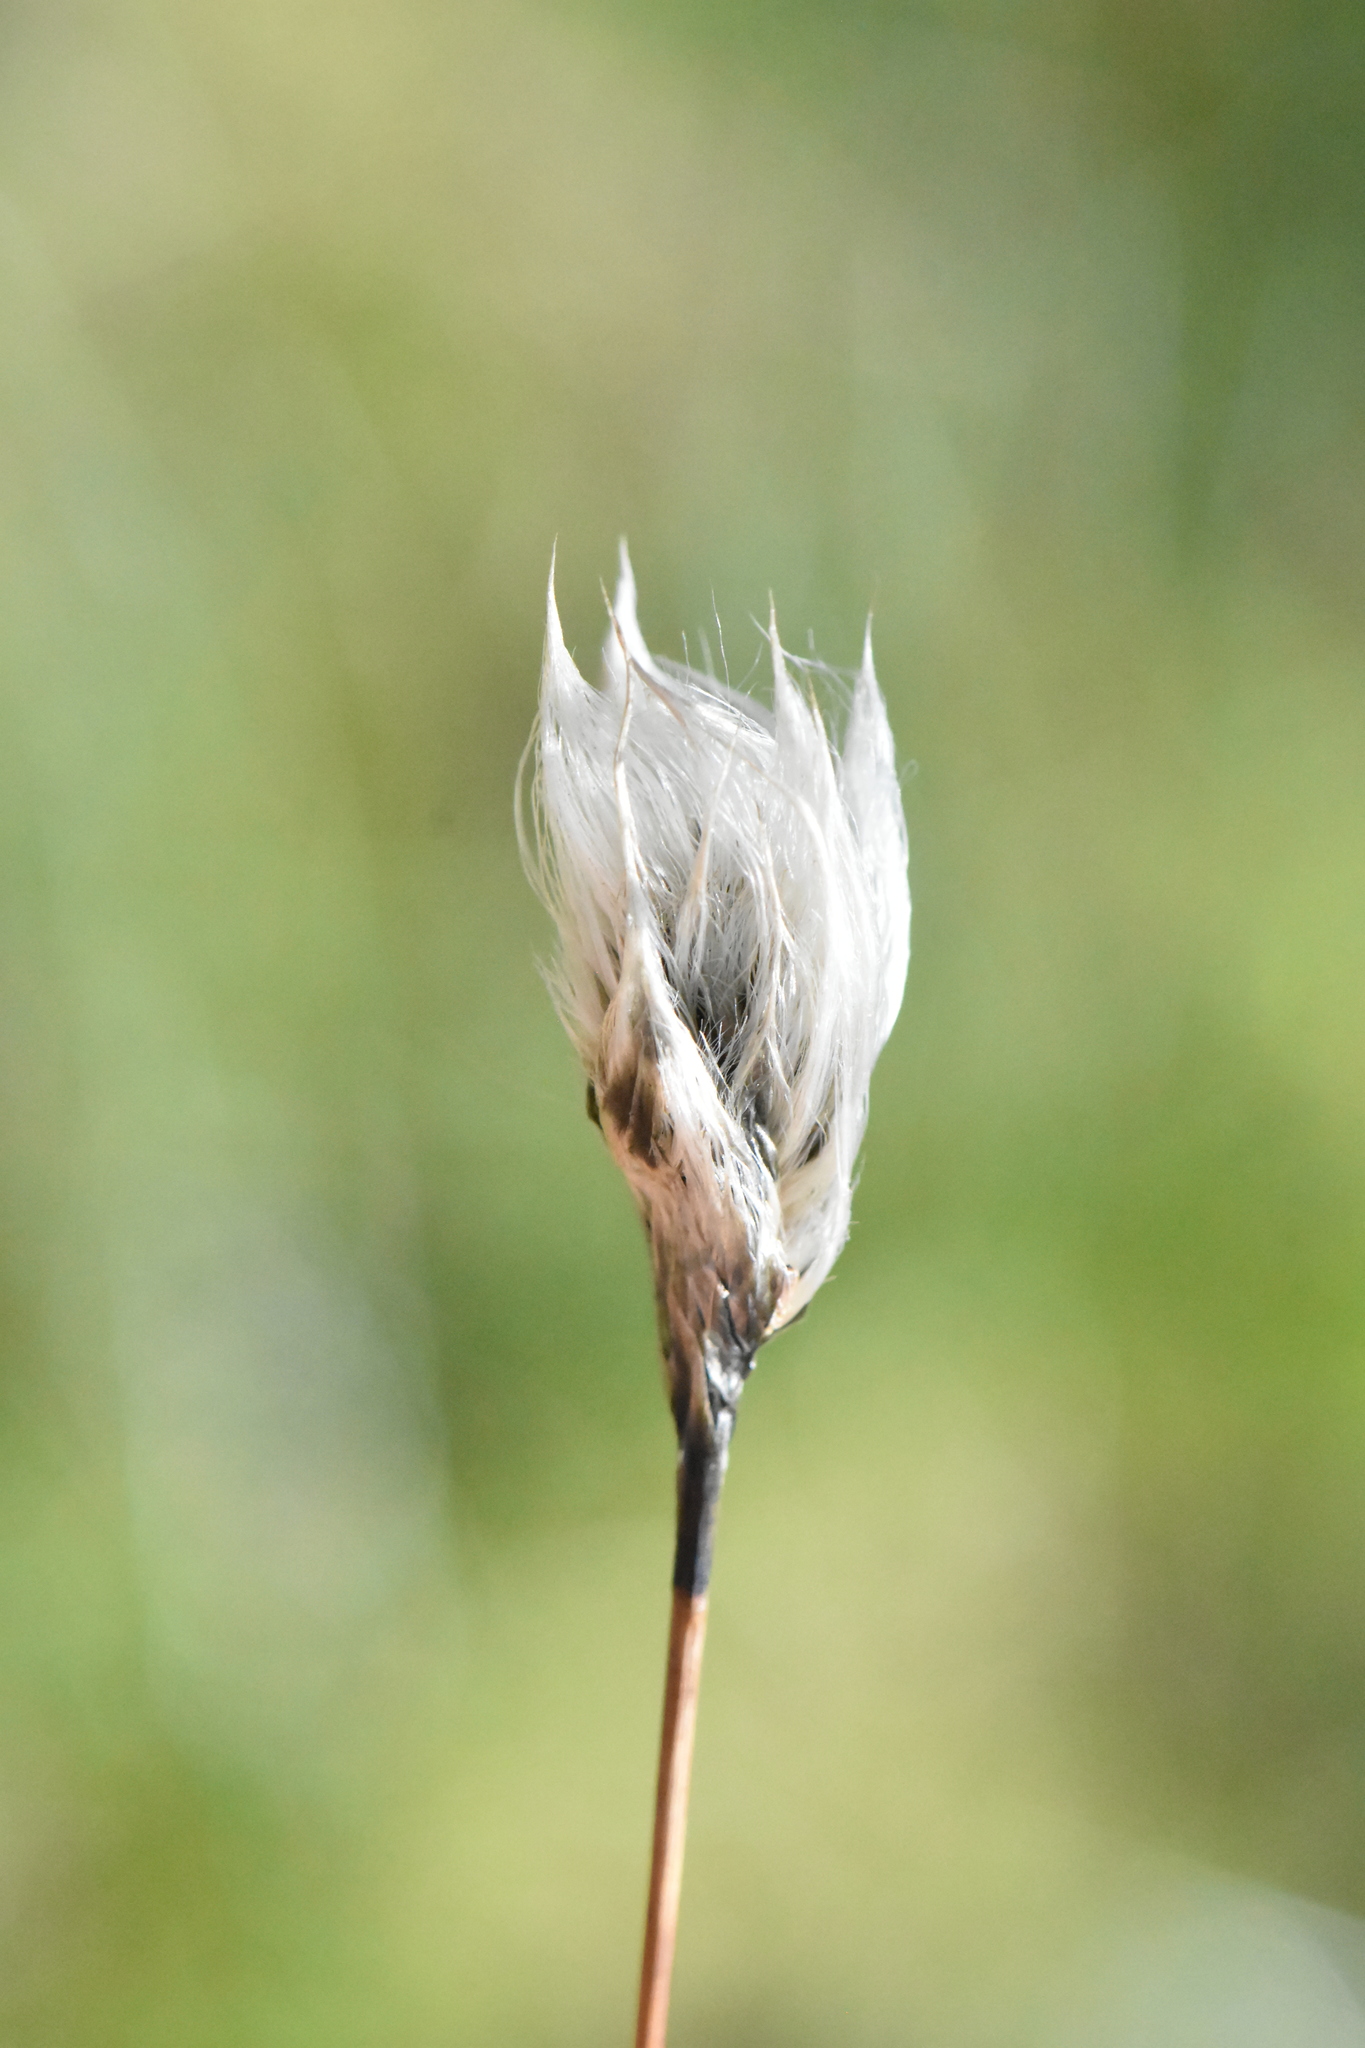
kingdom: Plantae
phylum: Tracheophyta
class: Liliopsida
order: Poales
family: Cyperaceae
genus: Eriophorum
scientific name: Eriophorum vaginatum
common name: Hare's-tail cottongrass
